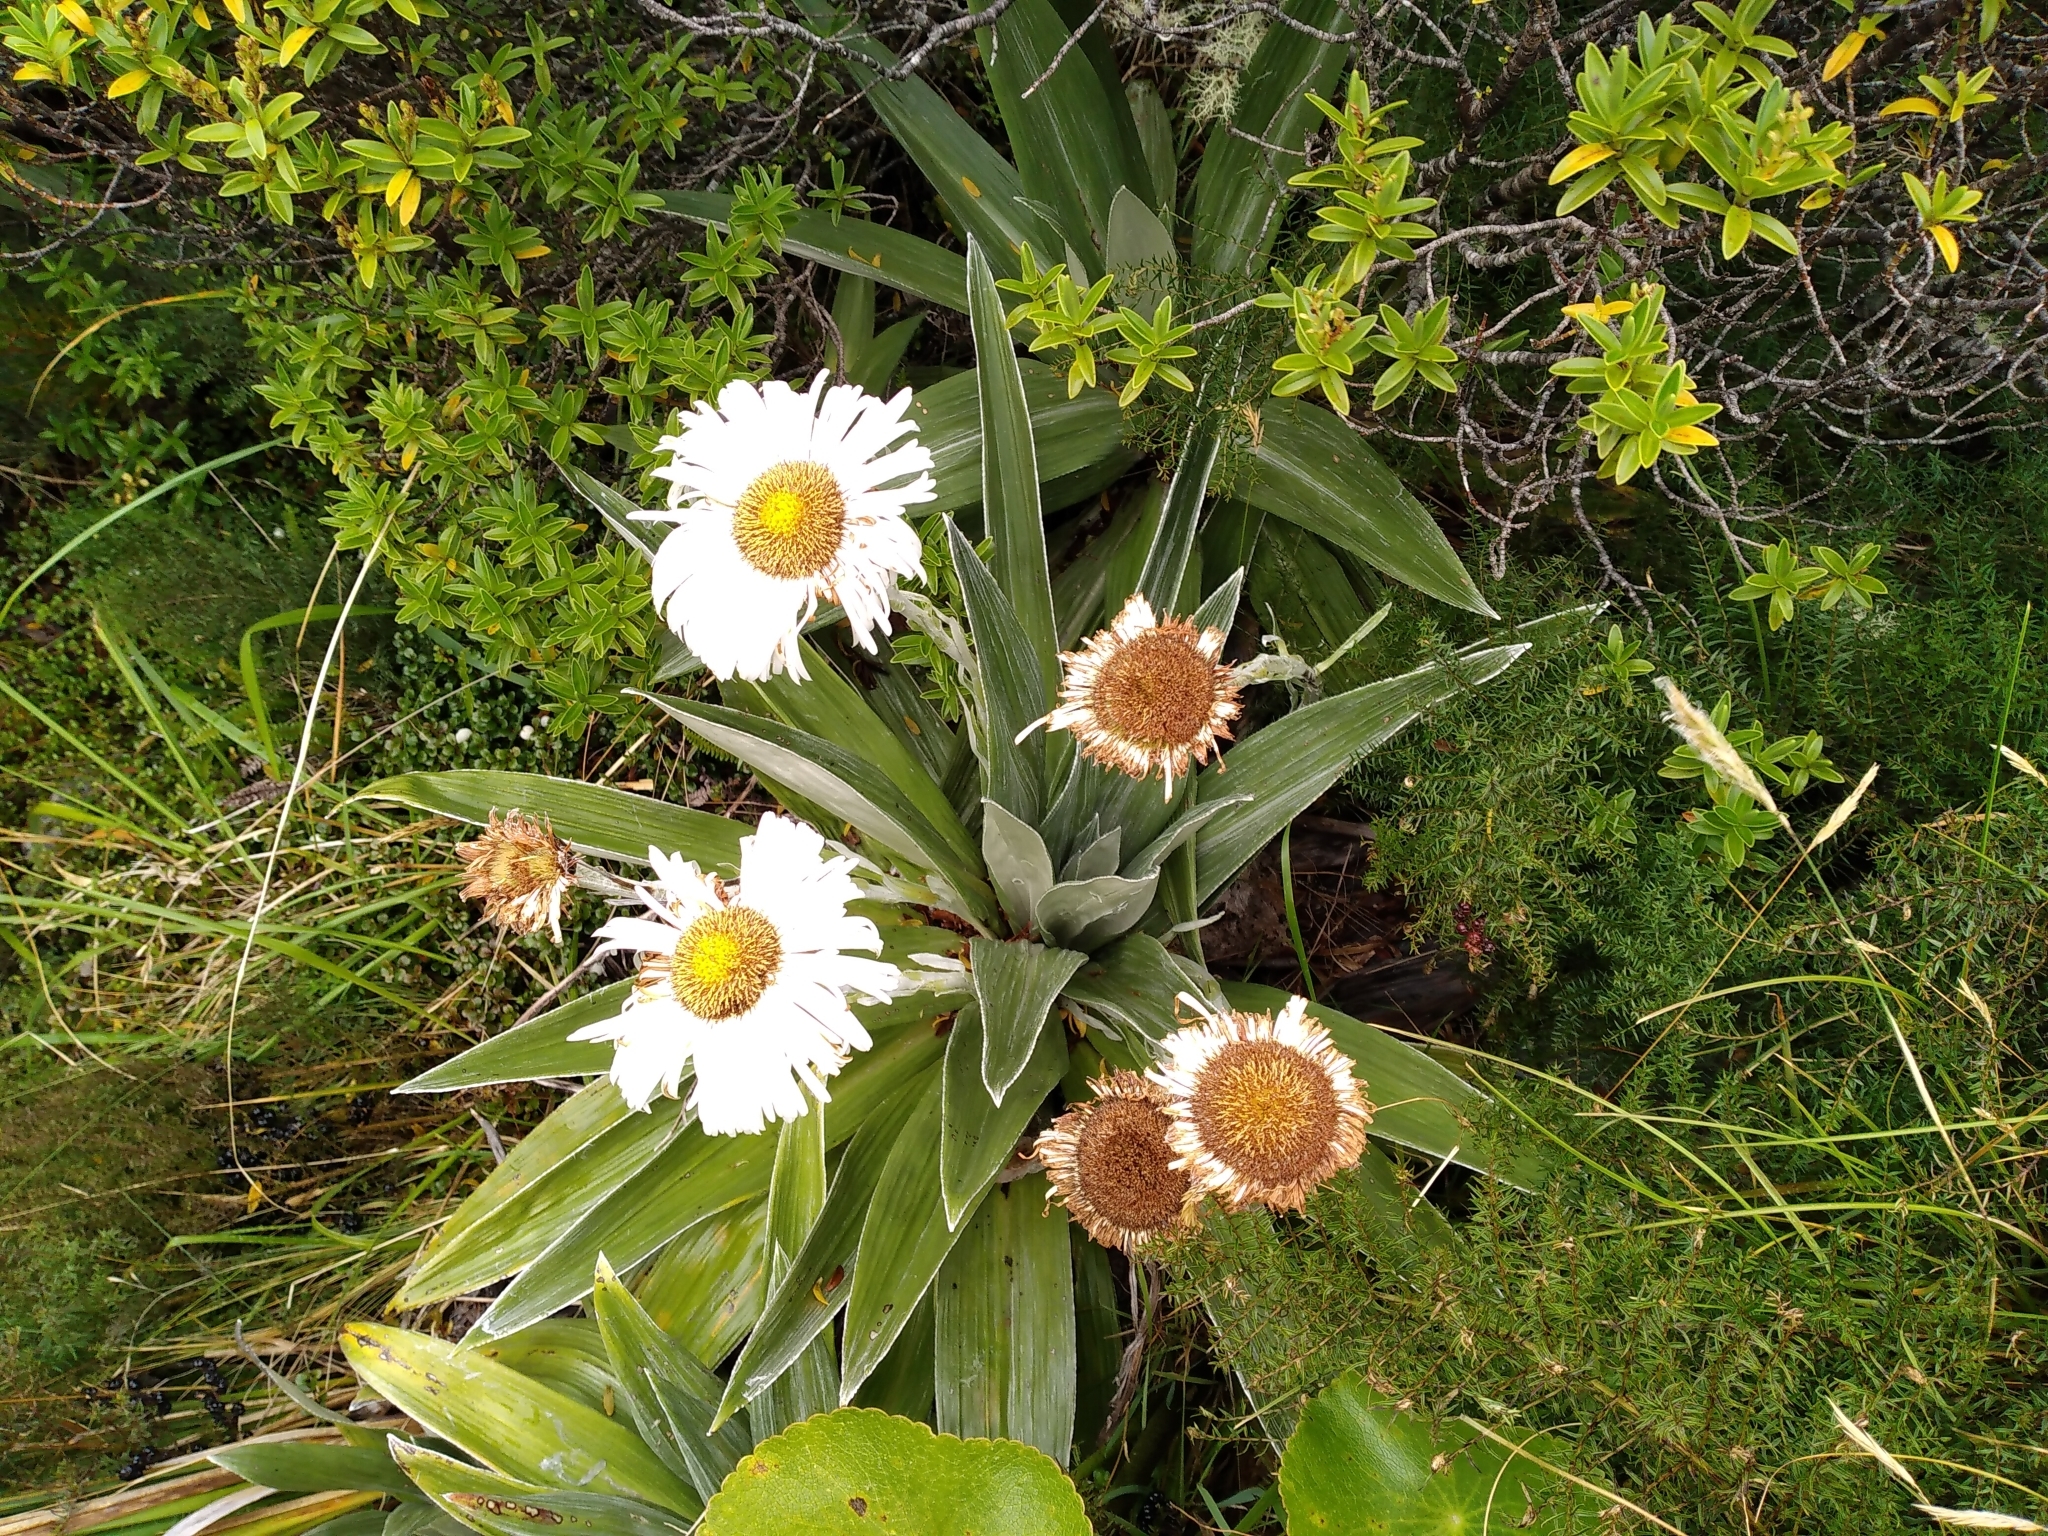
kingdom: Plantae
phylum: Tracheophyta
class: Magnoliopsida
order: Asterales
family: Asteraceae
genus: Celmisia
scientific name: Celmisia semicordata
